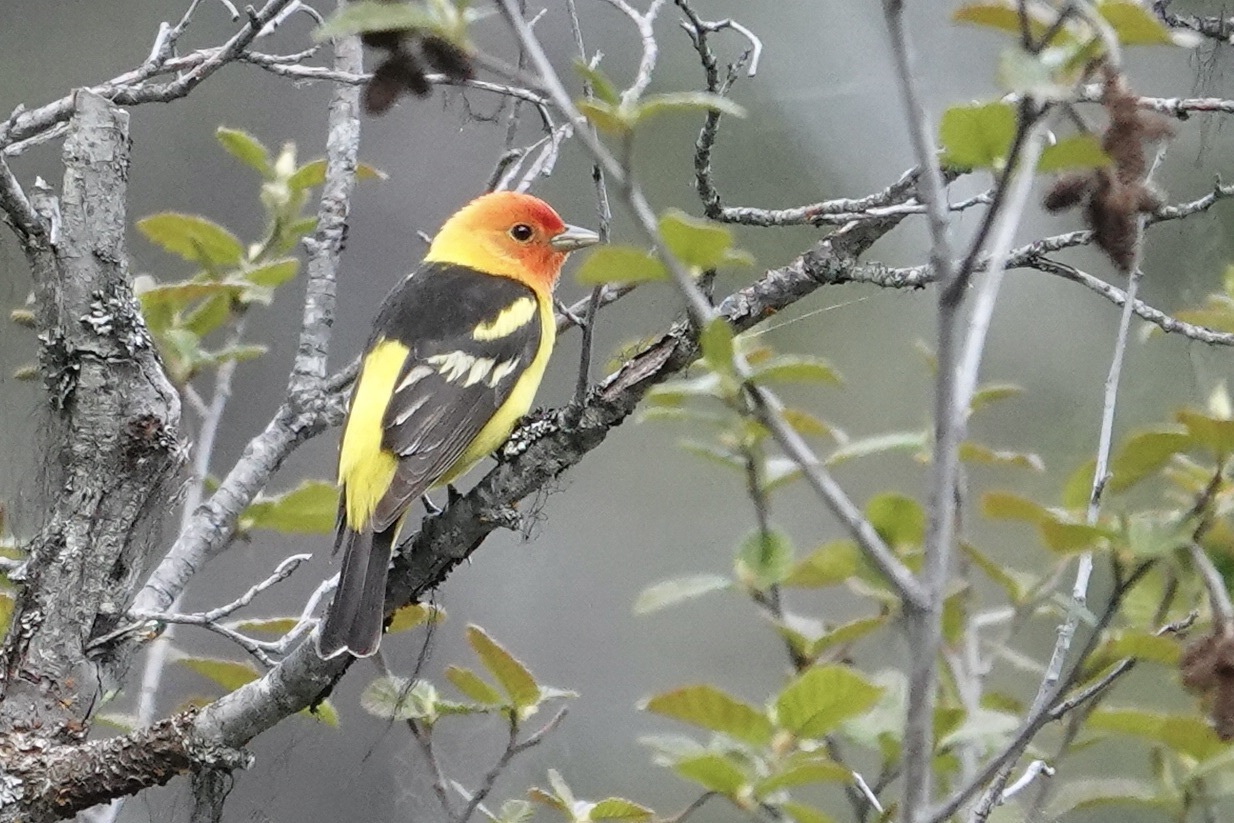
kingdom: Animalia
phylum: Chordata
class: Aves
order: Passeriformes
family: Cardinalidae
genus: Piranga
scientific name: Piranga ludoviciana
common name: Western tanager
